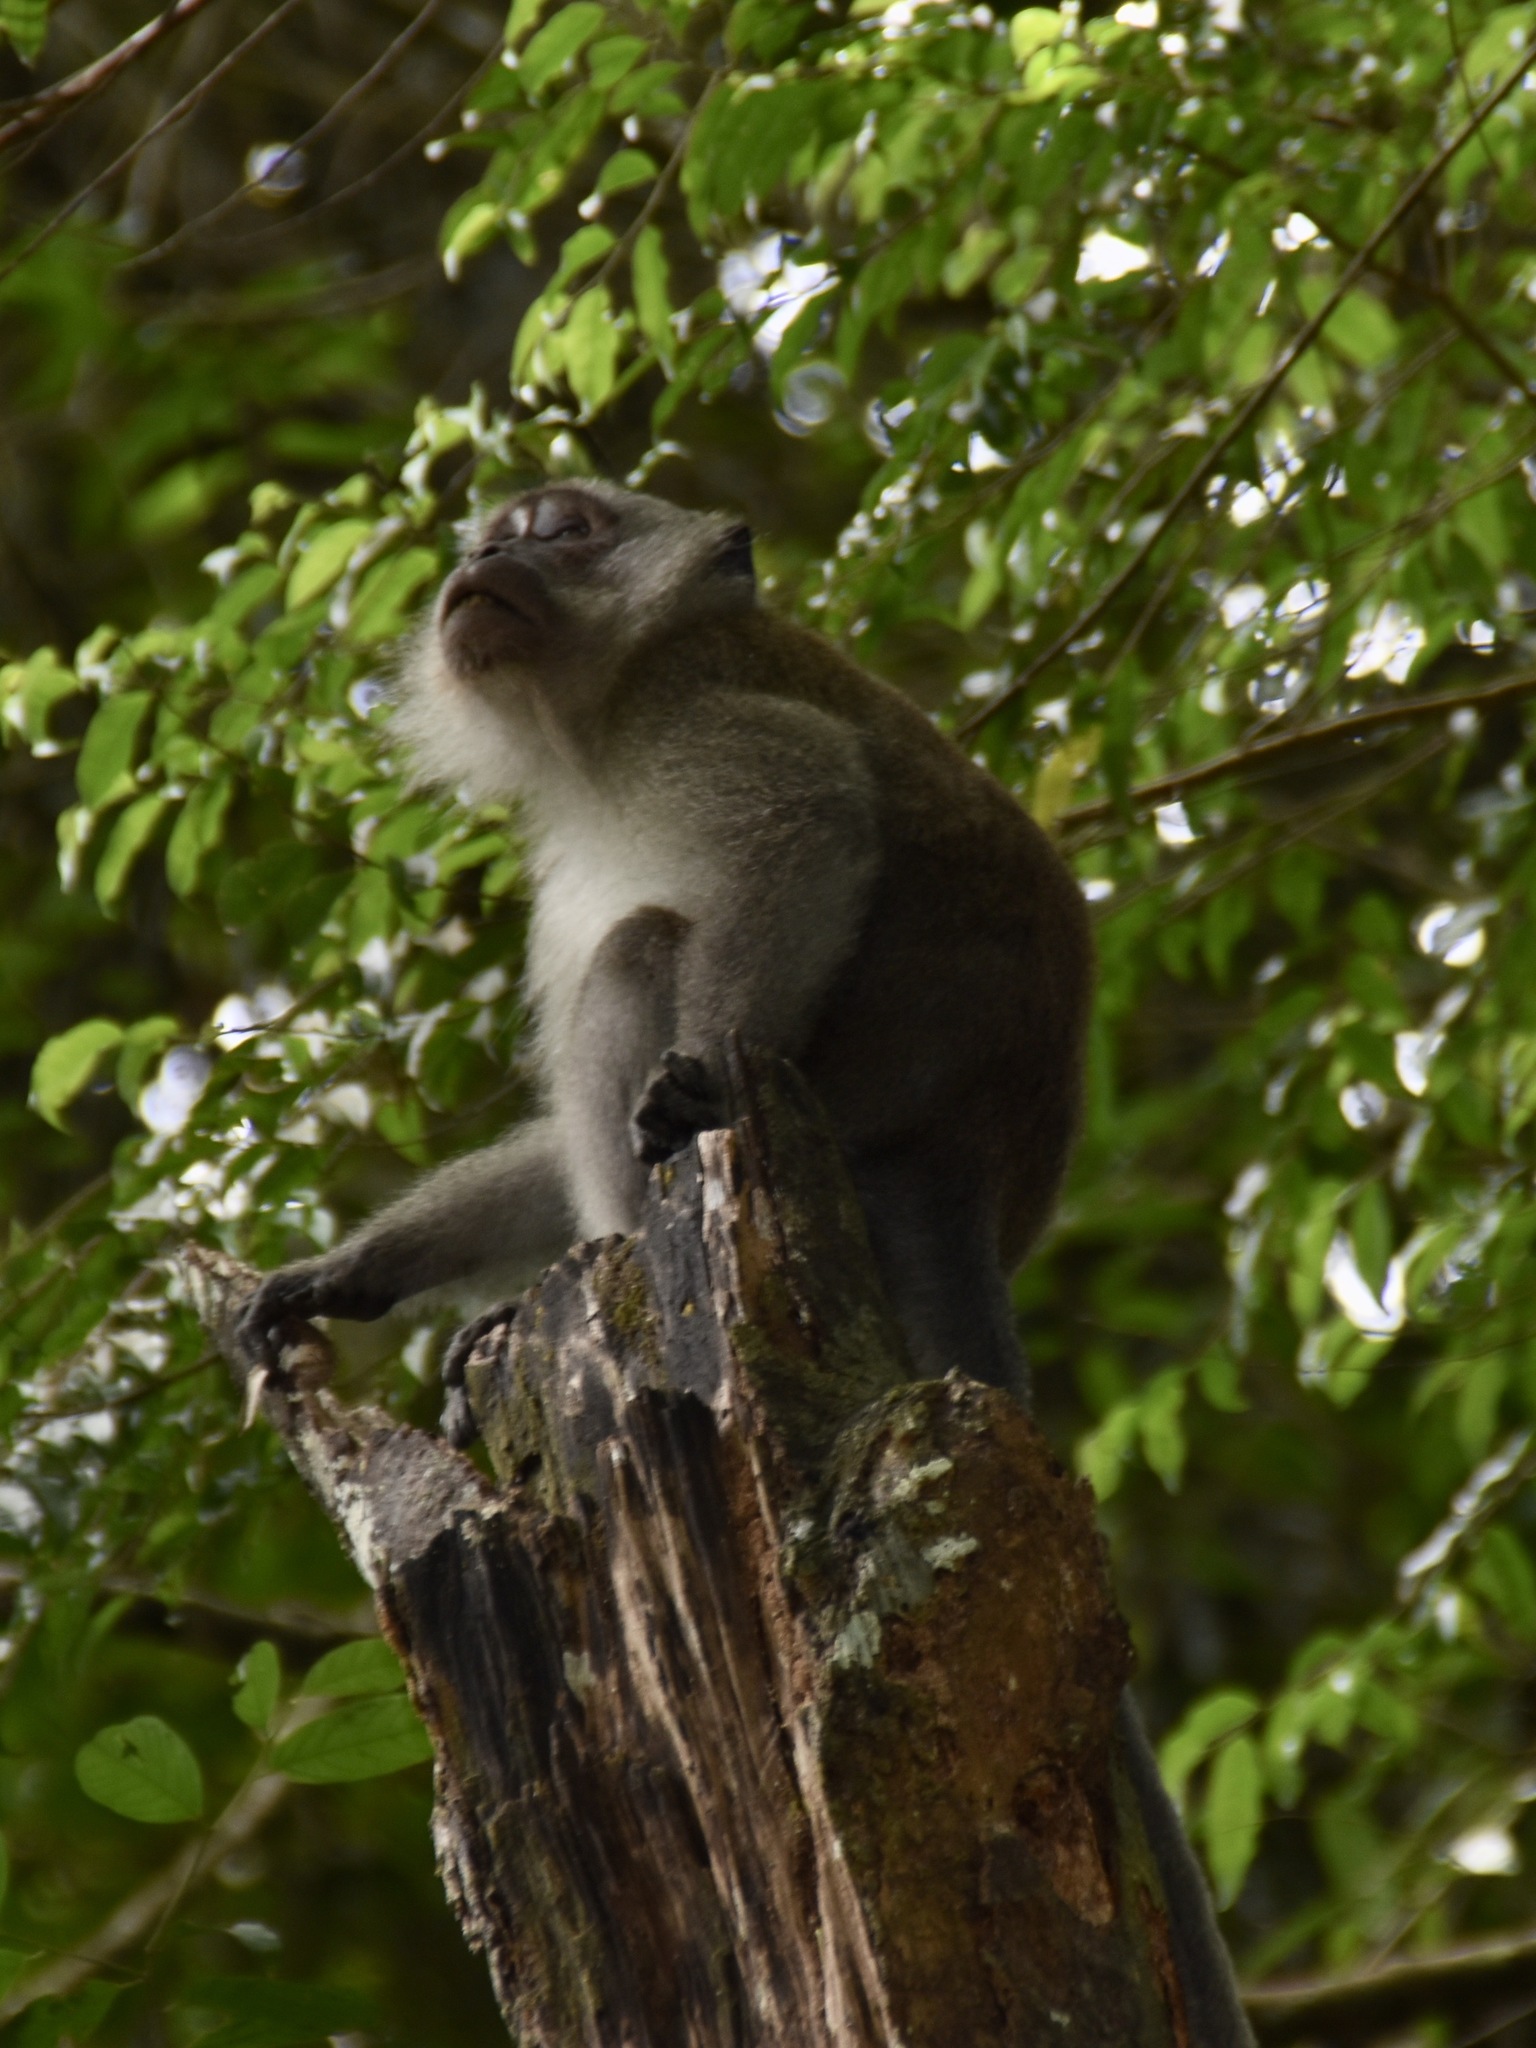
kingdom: Animalia
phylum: Chordata
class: Mammalia
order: Primates
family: Cercopithecidae
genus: Macaca
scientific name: Macaca fascicularis
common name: Crab-eating macaque
